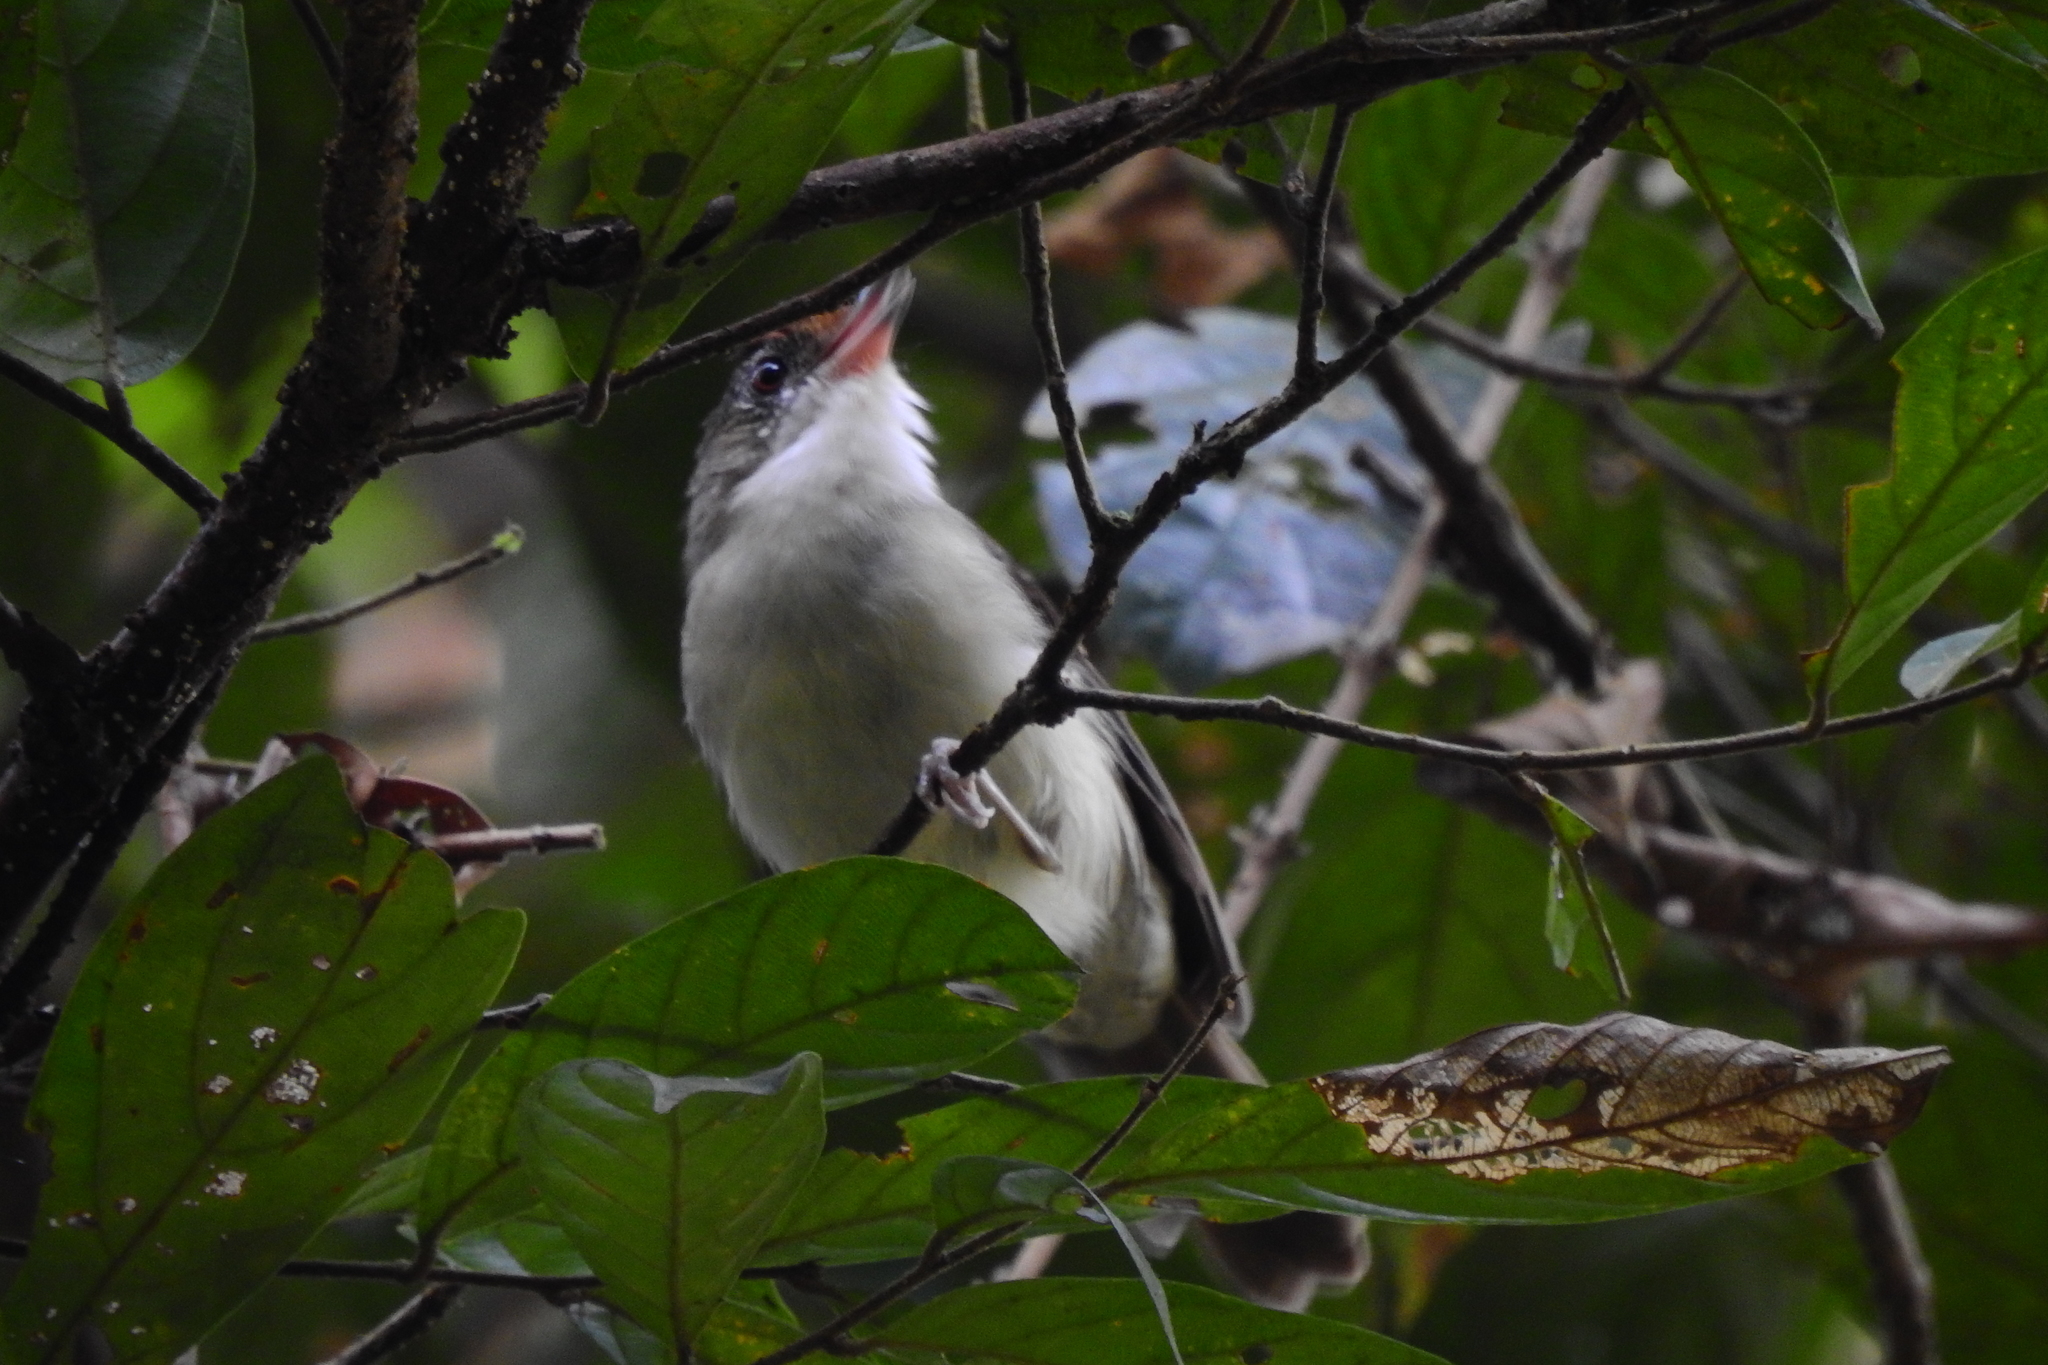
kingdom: Animalia
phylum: Chordata
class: Aves
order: Passeriformes
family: Pellorneidae
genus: Malacopteron
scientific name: Malacopteron magnum
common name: Rufous-crowned babbler
